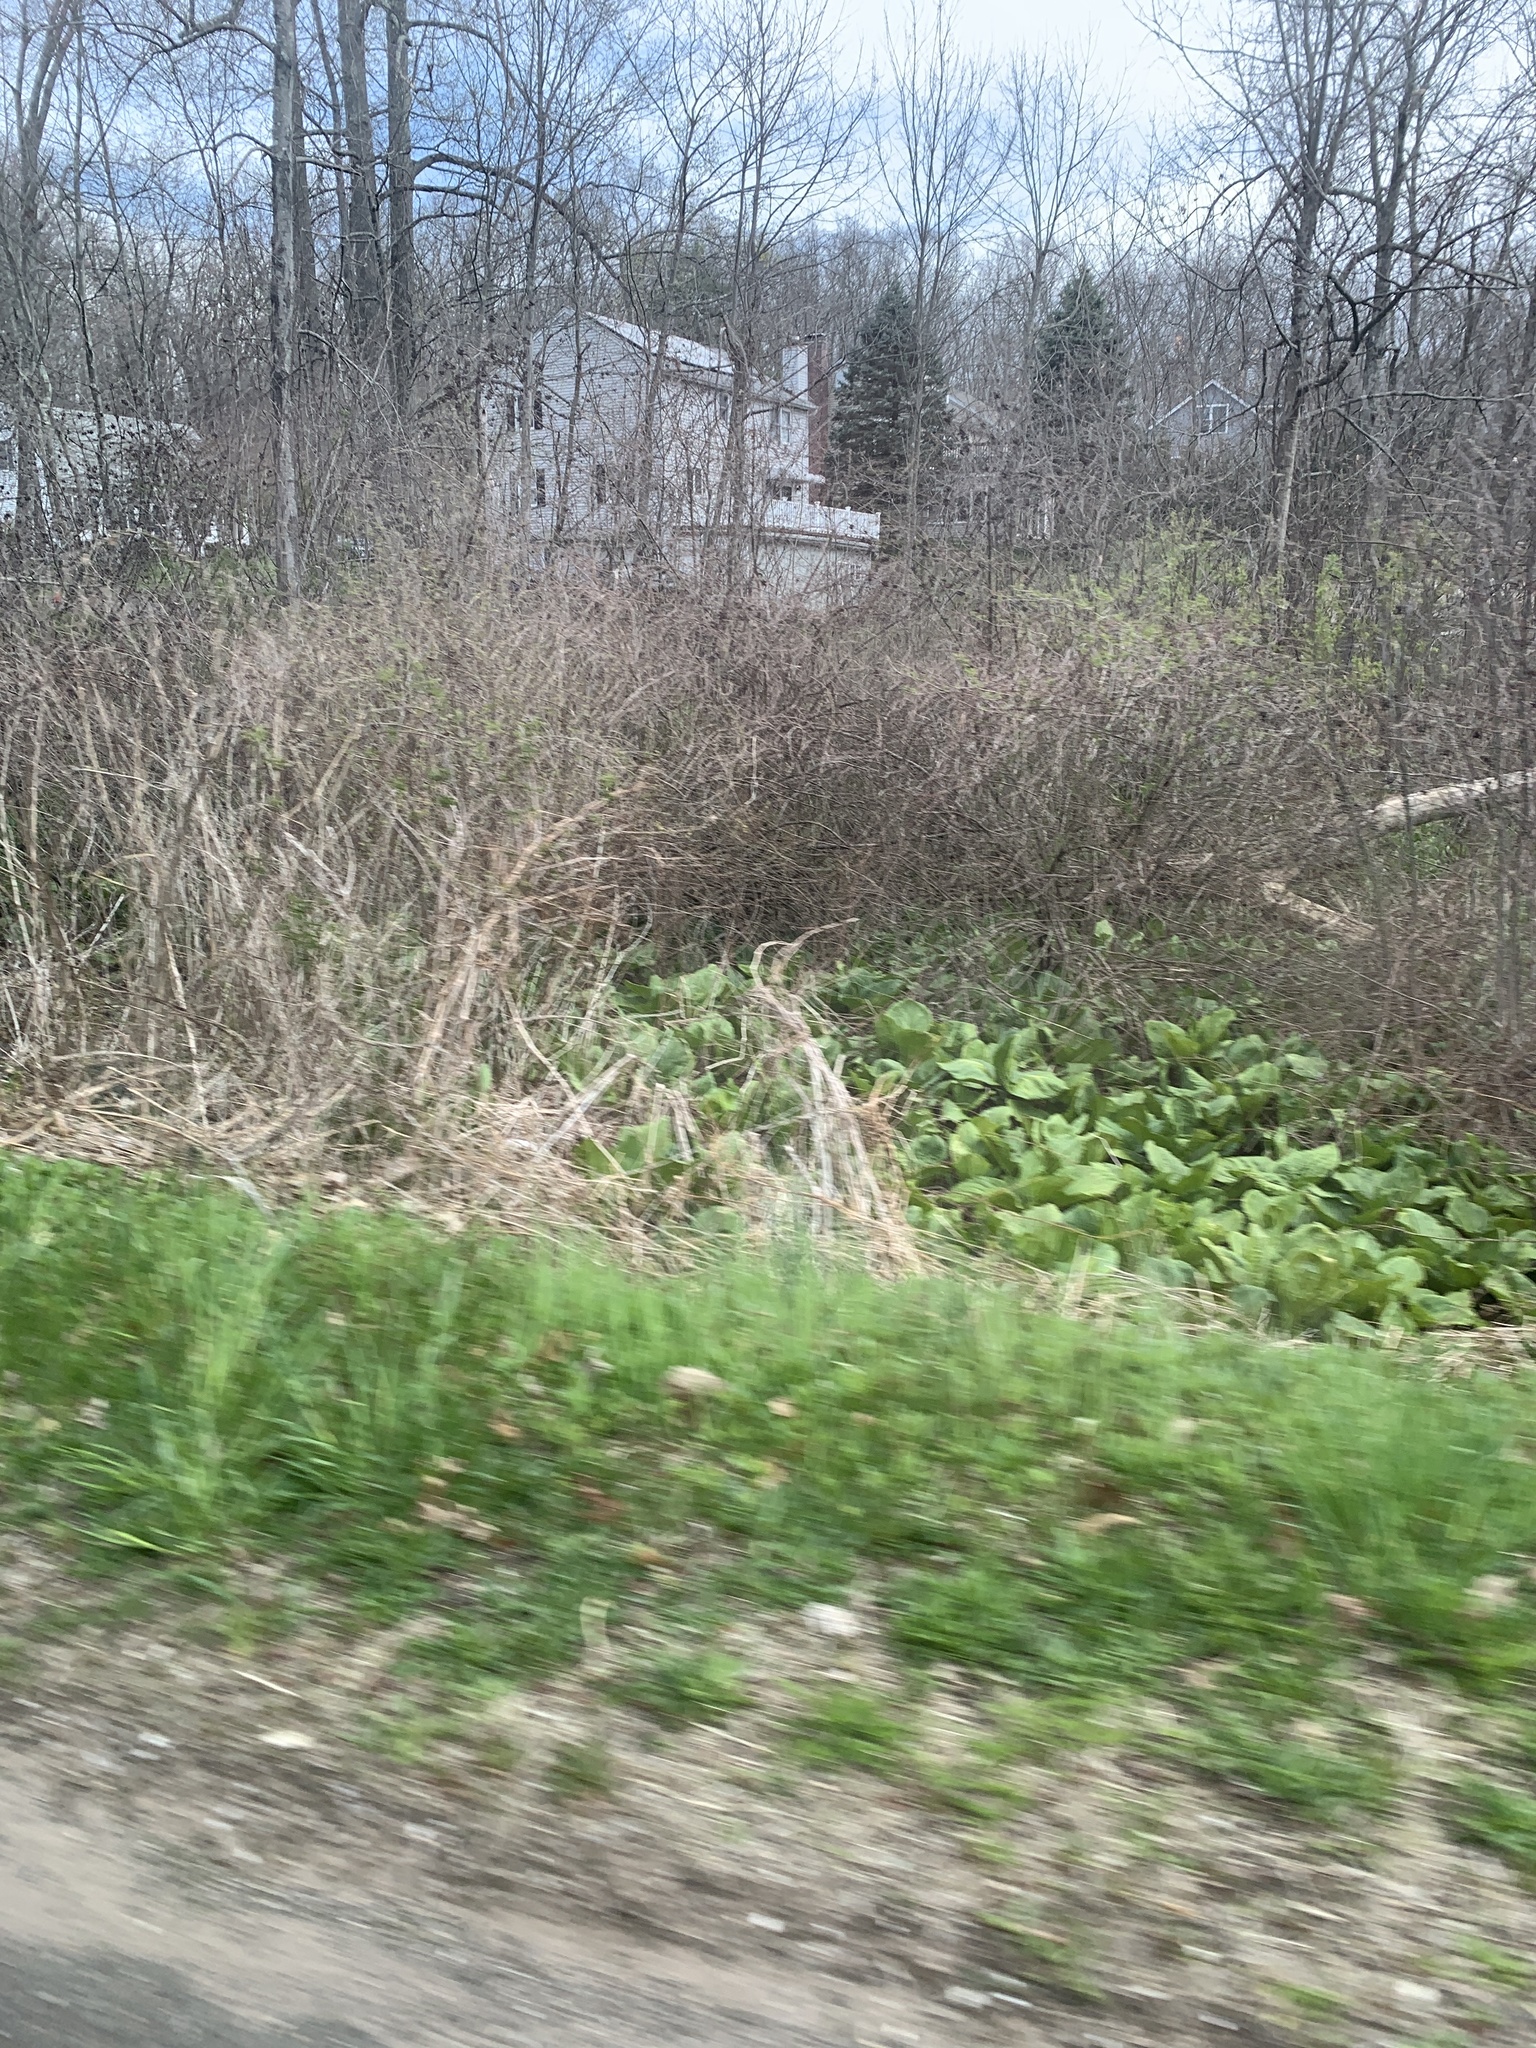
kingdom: Plantae
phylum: Tracheophyta
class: Liliopsida
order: Alismatales
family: Araceae
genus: Symplocarpus
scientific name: Symplocarpus foetidus
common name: Eastern skunk cabbage
